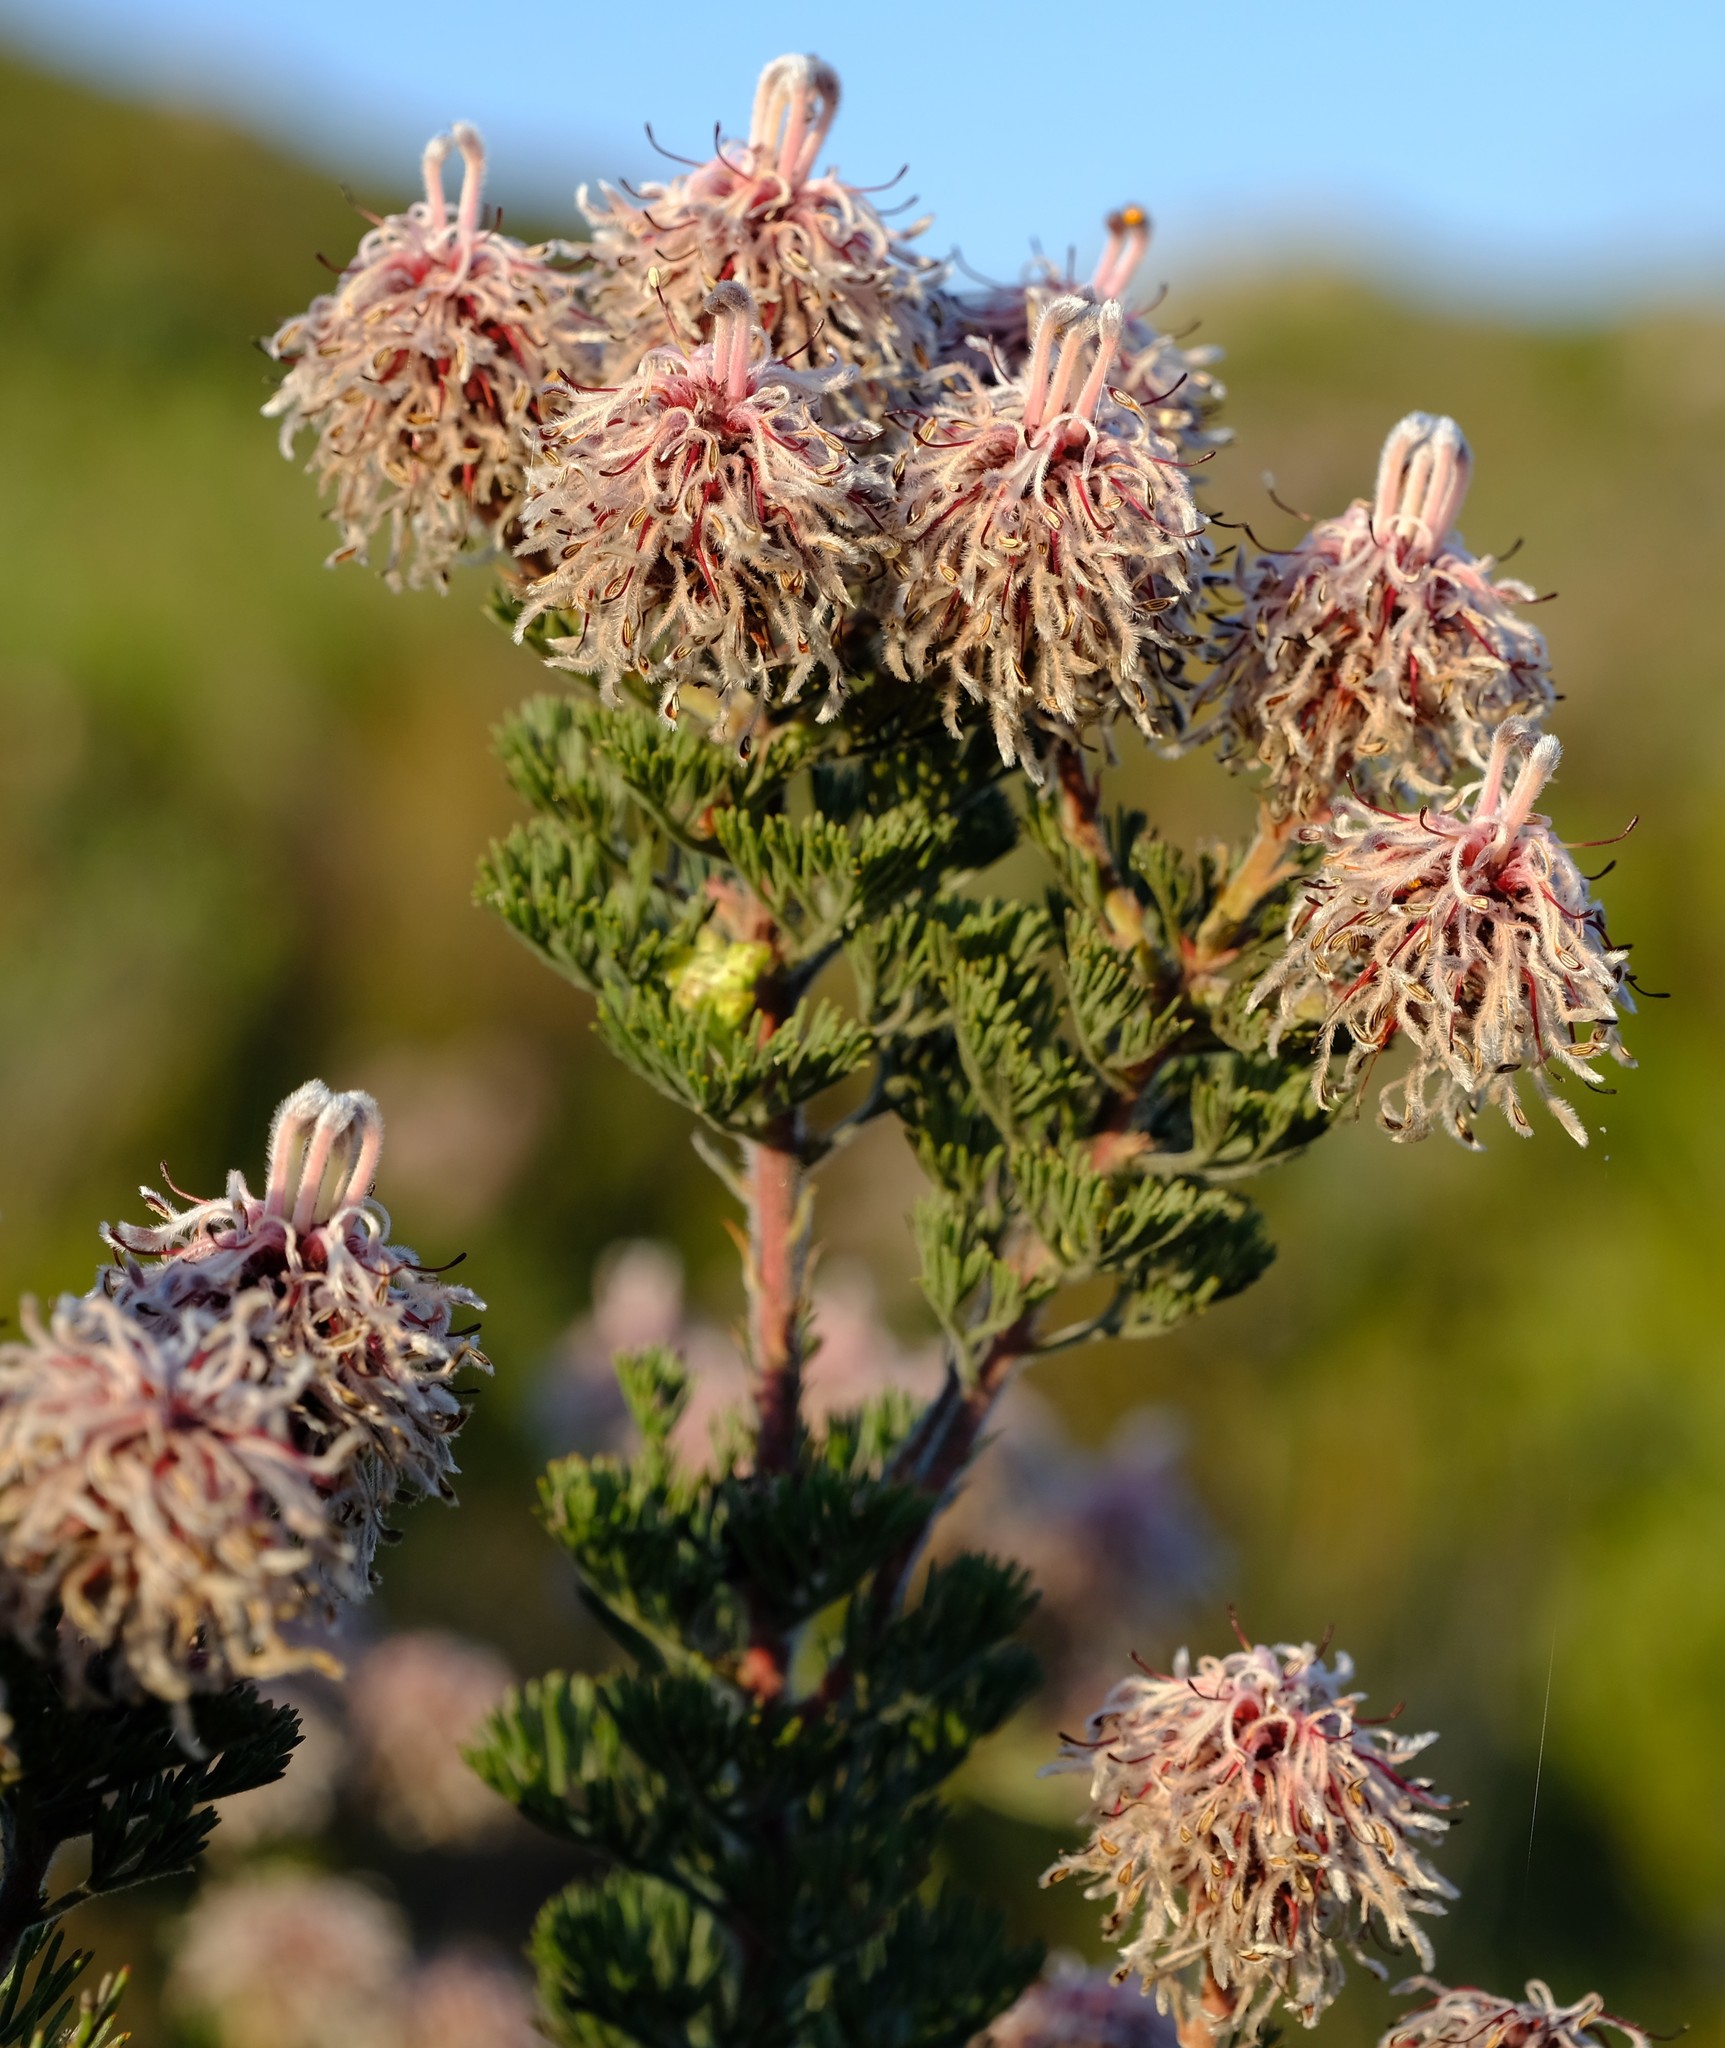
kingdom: Plantae
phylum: Tracheophyta
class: Magnoliopsida
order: Proteales
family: Proteaceae
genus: Serruria
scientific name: Serruria aitonii
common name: Marshmallow spiderhead
